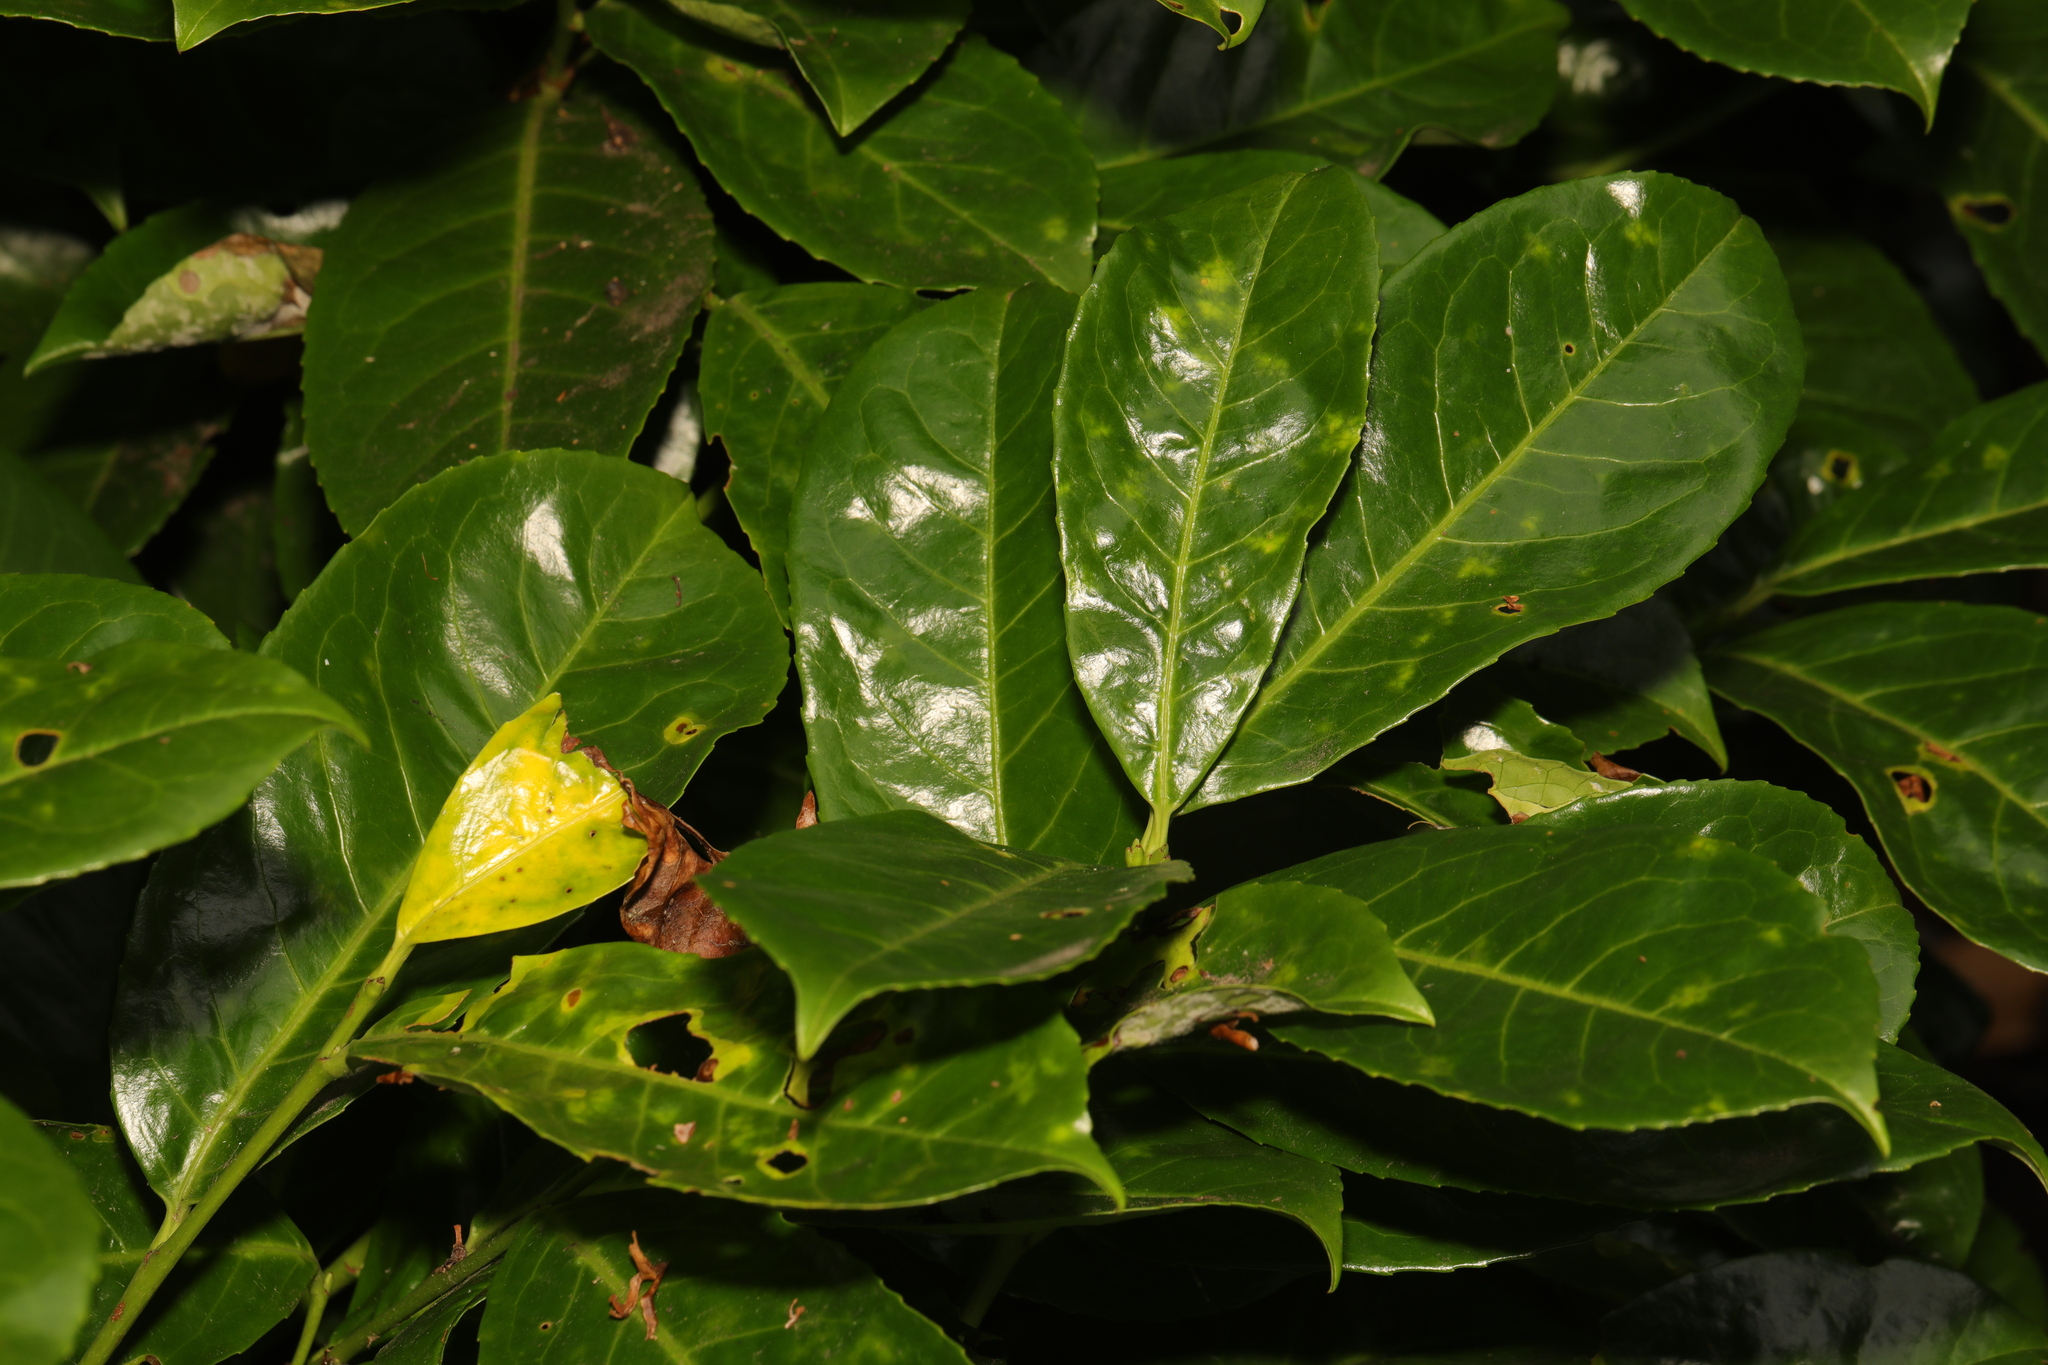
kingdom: Plantae
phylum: Tracheophyta
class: Magnoliopsida
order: Rosales
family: Rosaceae
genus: Prunus
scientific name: Prunus laurocerasus
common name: Cherry laurel
